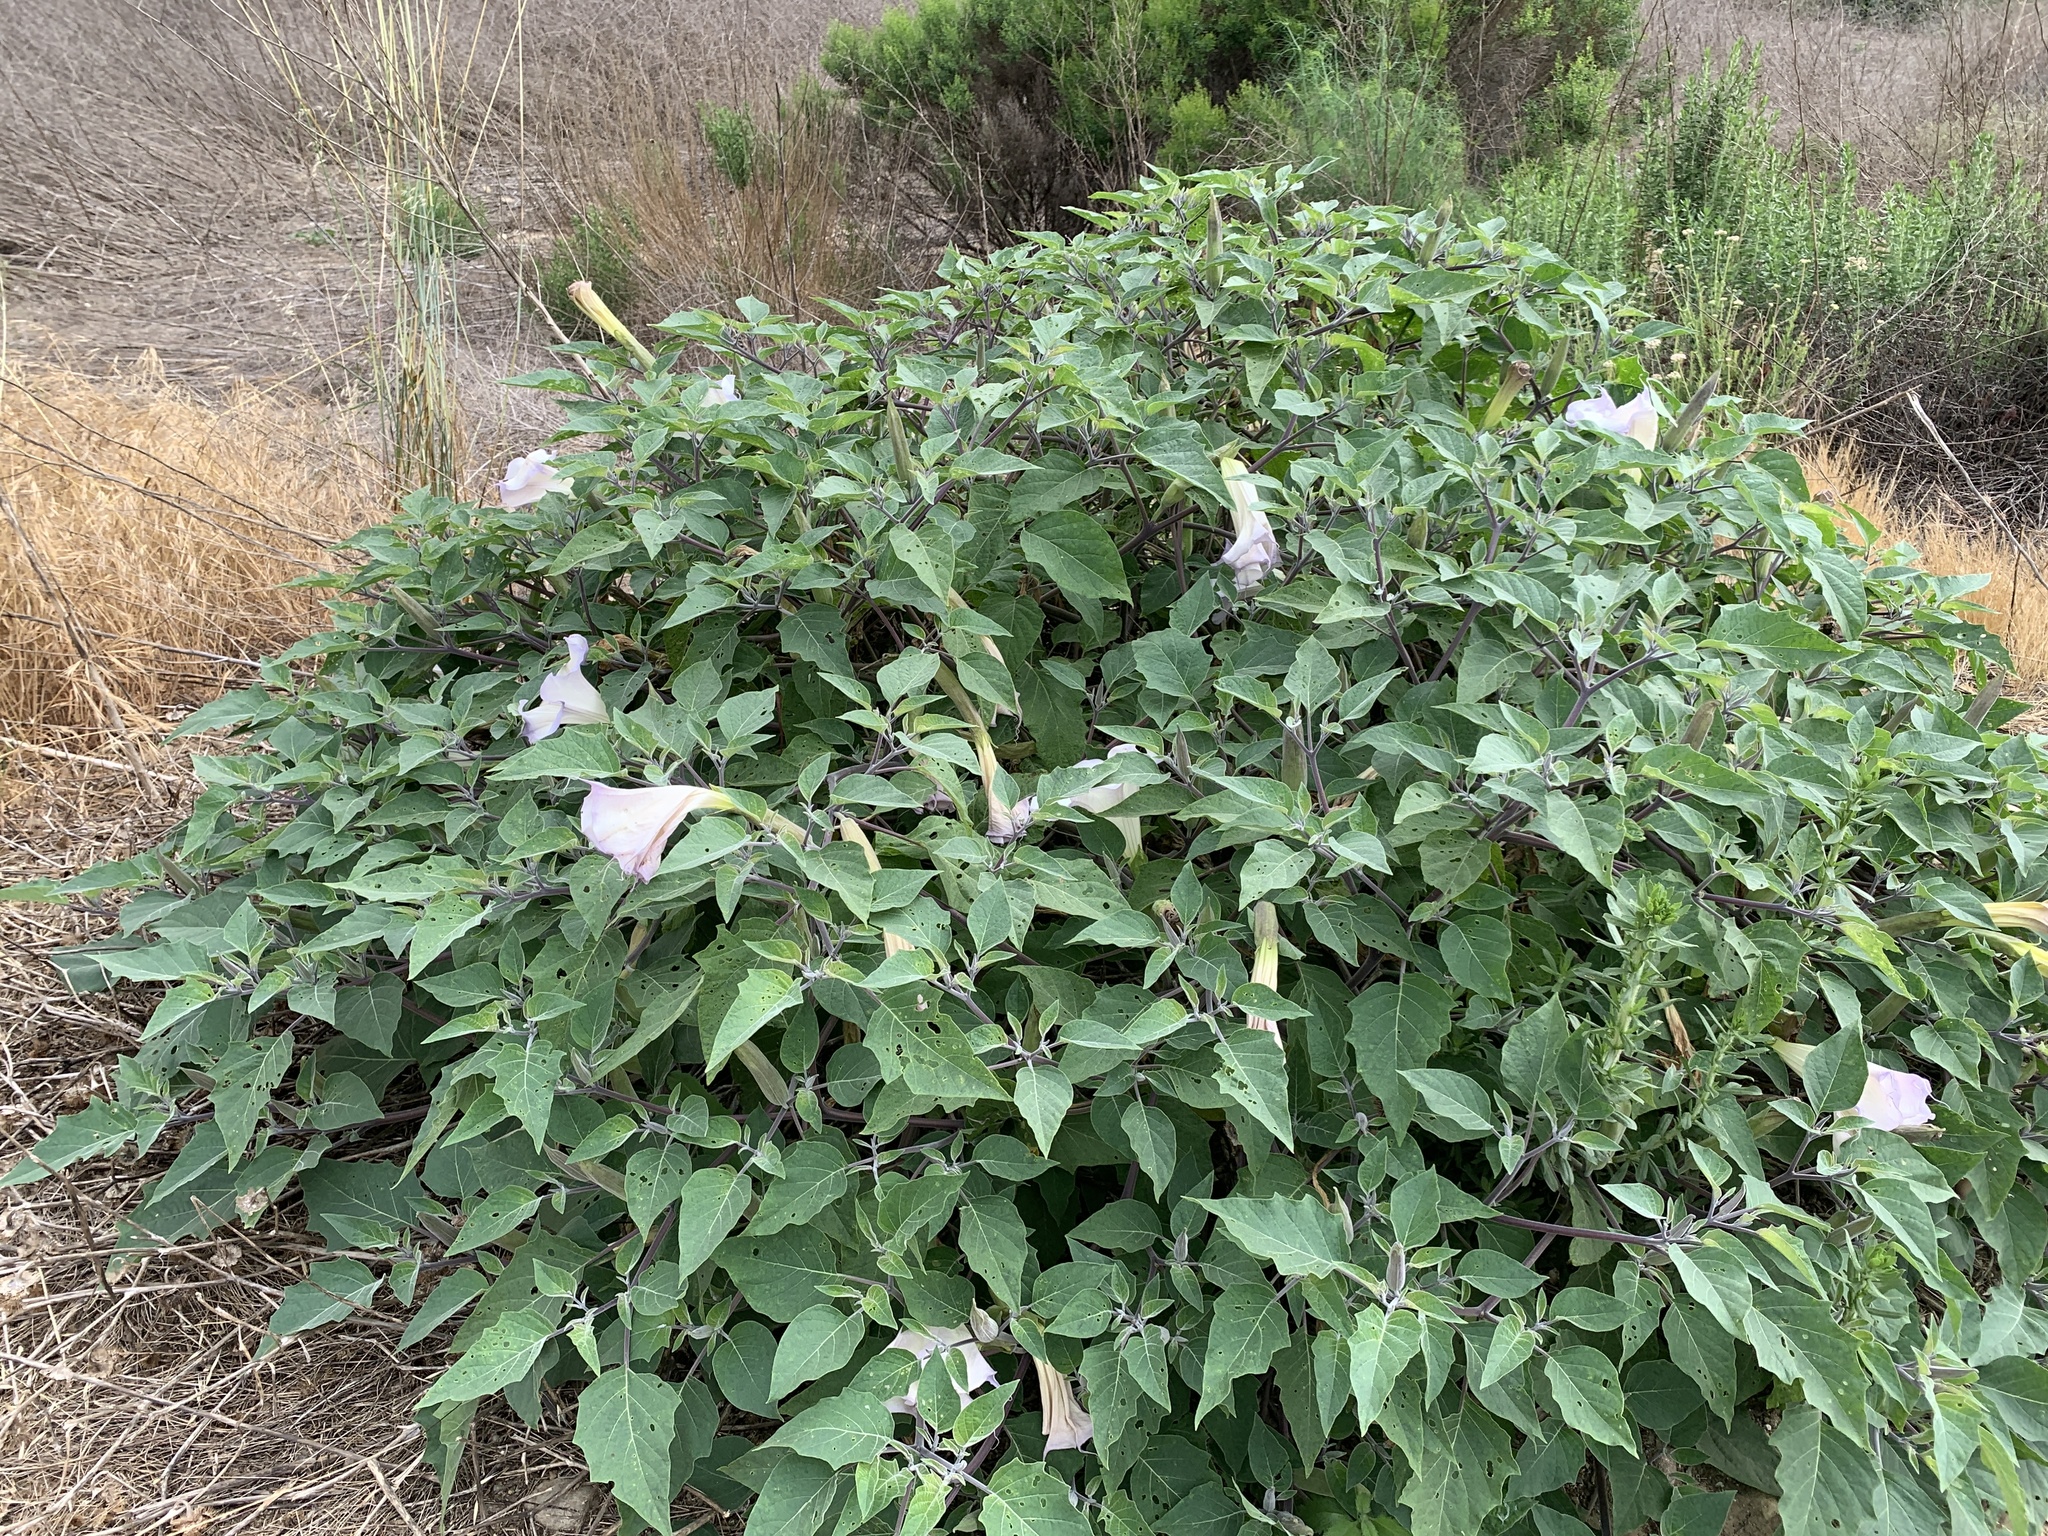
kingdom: Plantae
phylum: Tracheophyta
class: Magnoliopsida
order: Solanales
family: Solanaceae
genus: Datura
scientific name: Datura wrightii
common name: Sacred thorn-apple
